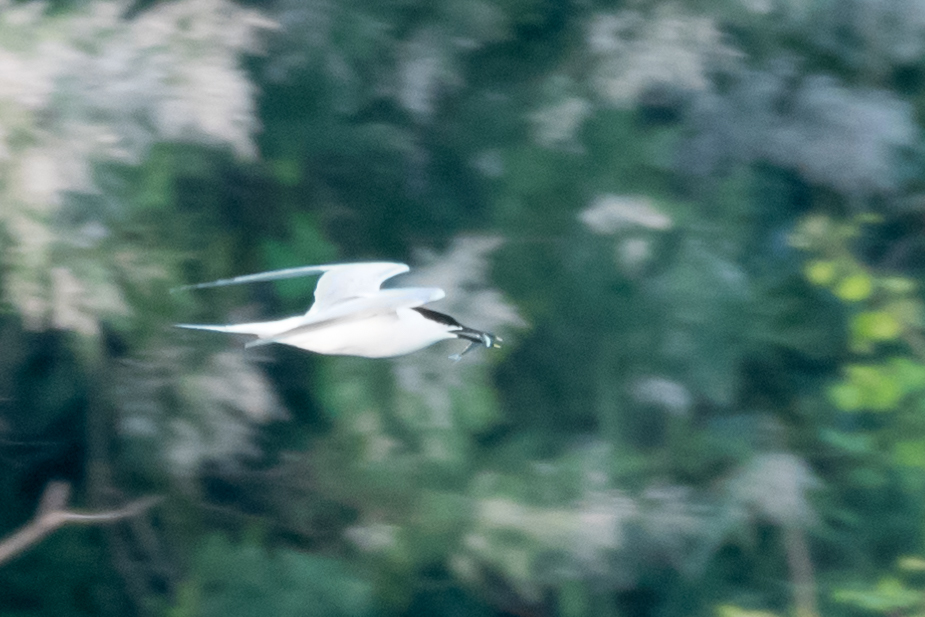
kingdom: Animalia
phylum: Chordata
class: Aves
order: Charadriiformes
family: Laridae
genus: Thalasseus
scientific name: Thalasseus sandvicensis
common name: Sandwich tern
